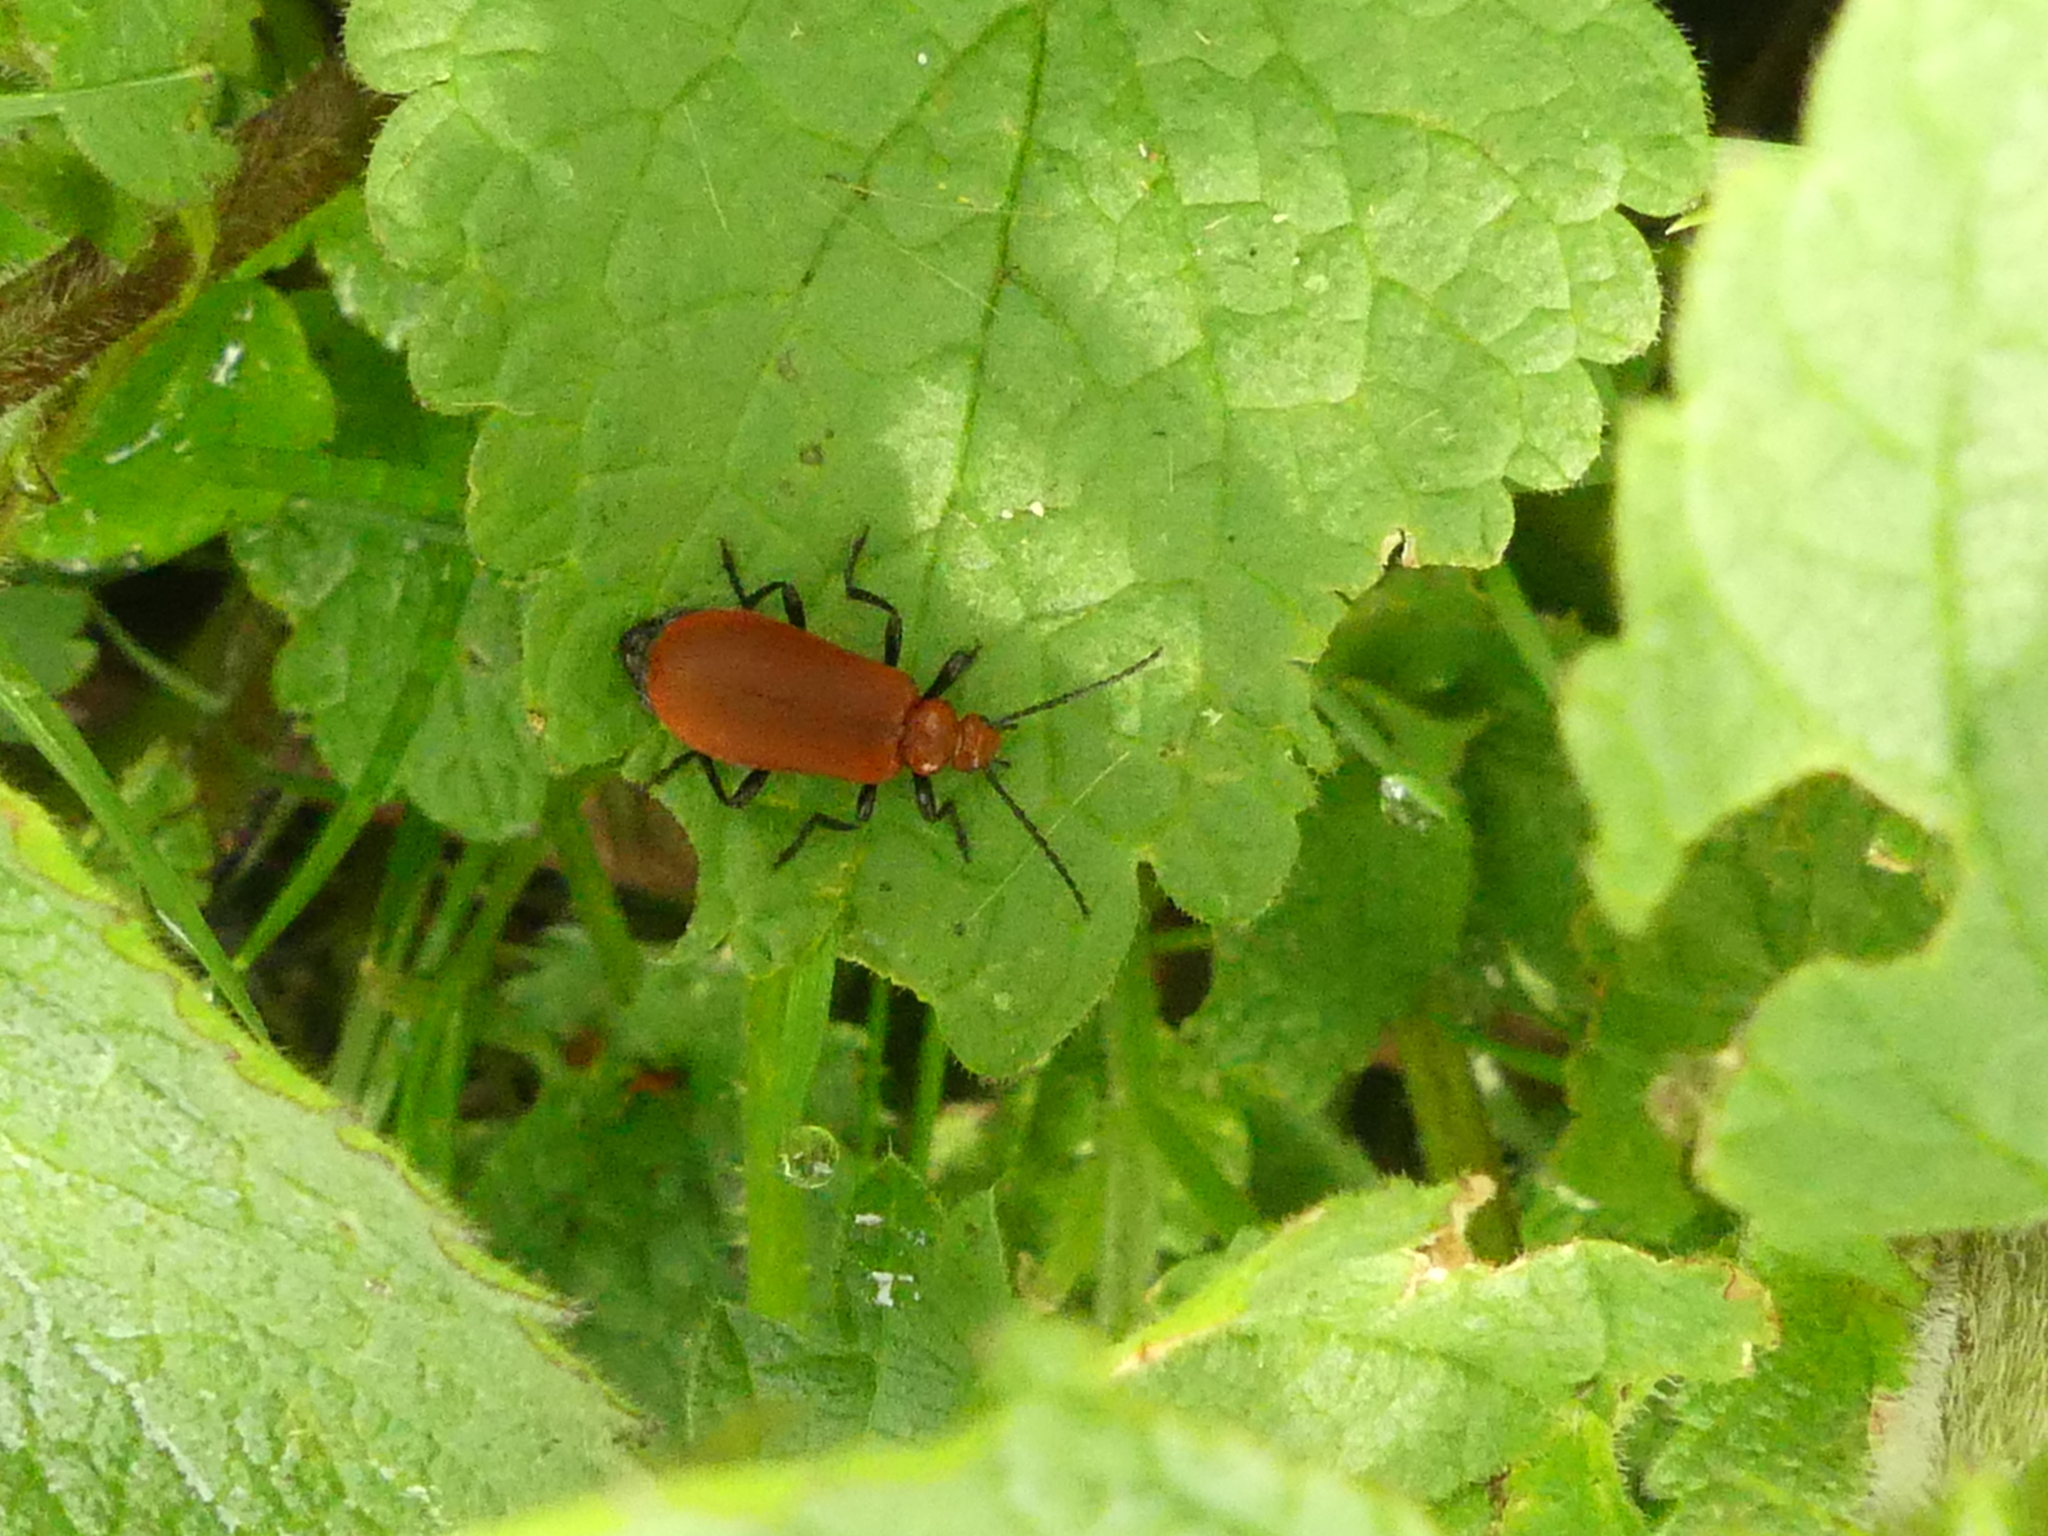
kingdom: Animalia
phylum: Arthropoda
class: Insecta
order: Coleoptera
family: Pyrochroidae
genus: Pyrochroa
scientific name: Pyrochroa serraticornis
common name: Red-headed cardinal beetle
